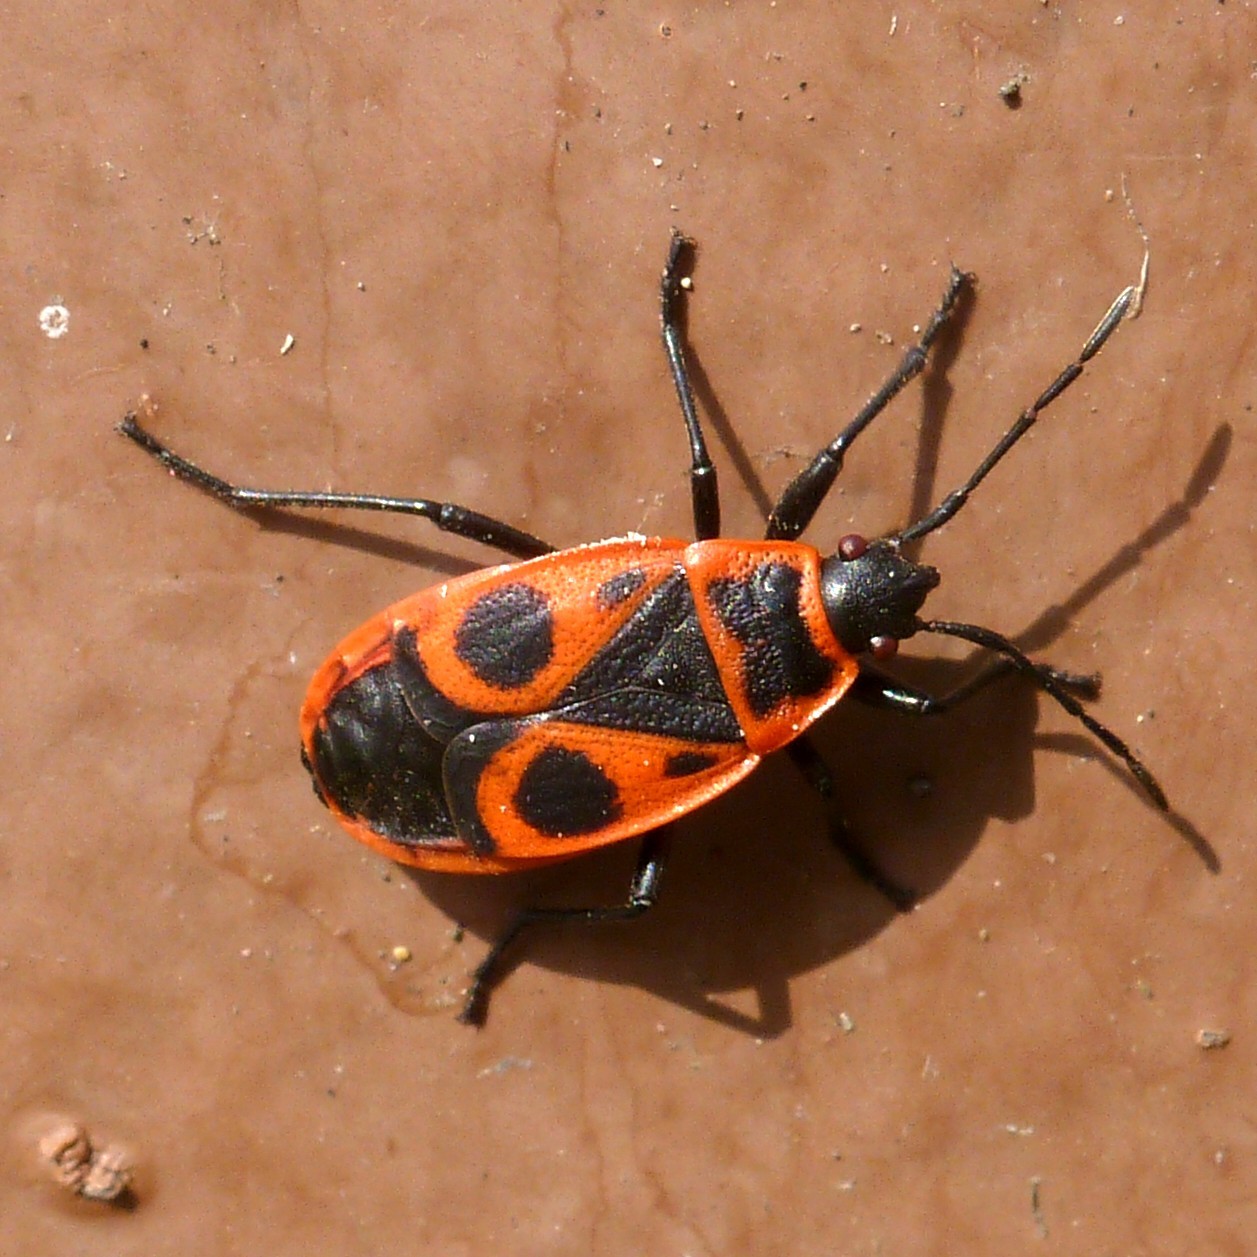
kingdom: Animalia
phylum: Arthropoda
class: Insecta
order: Hemiptera
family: Pyrrhocoridae
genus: Pyrrhocoris
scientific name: Pyrrhocoris apterus
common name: Firebug
